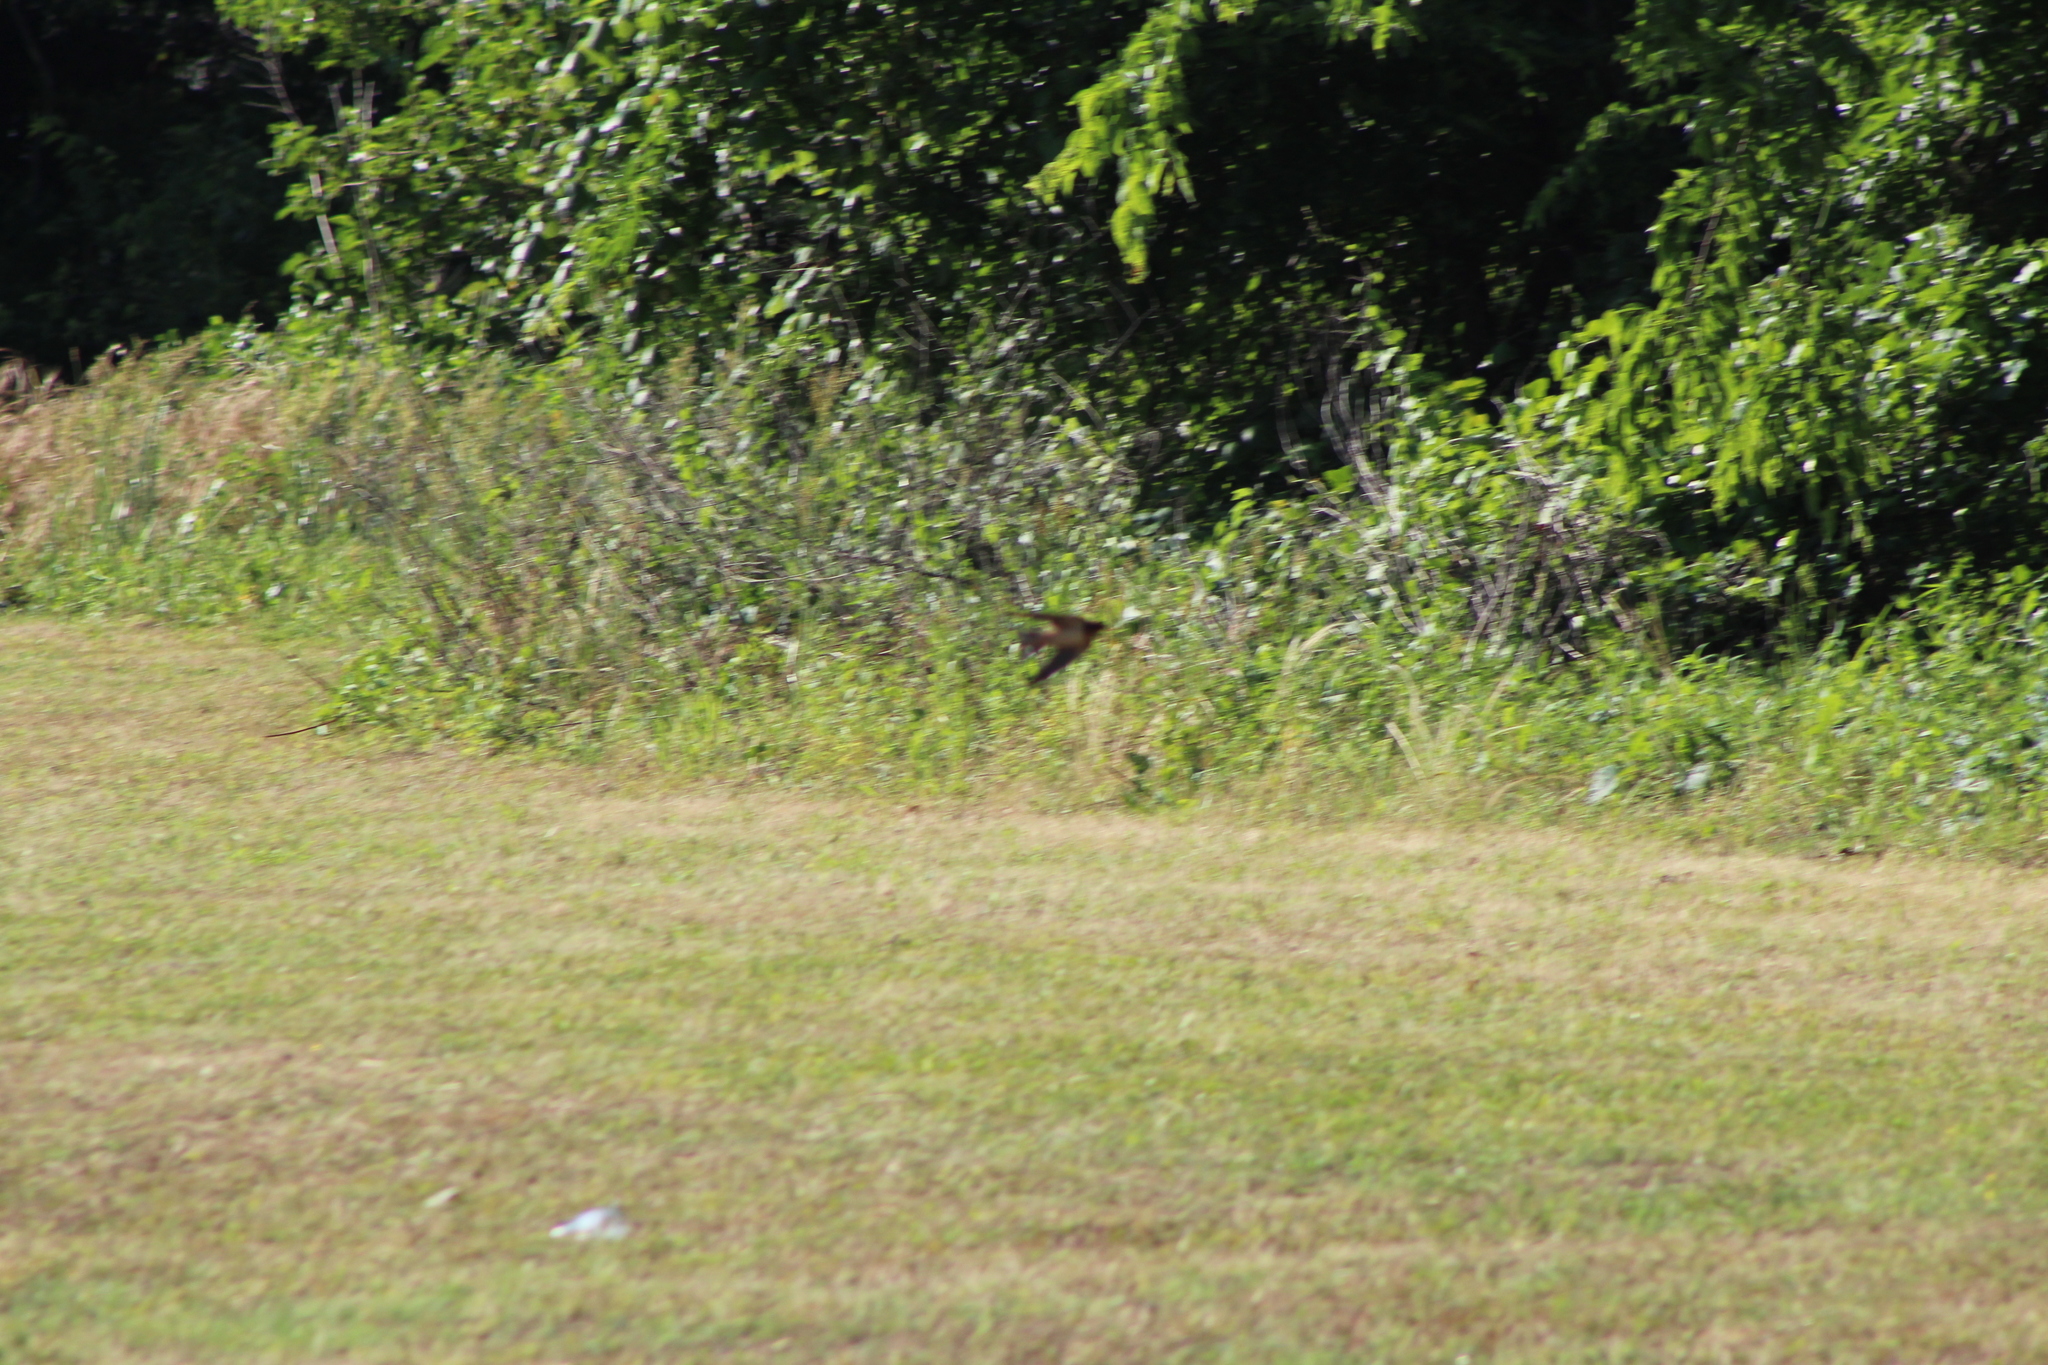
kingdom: Animalia
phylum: Chordata
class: Aves
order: Passeriformes
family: Hirundinidae
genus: Hirundo
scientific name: Hirundo rustica
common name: Barn swallow
